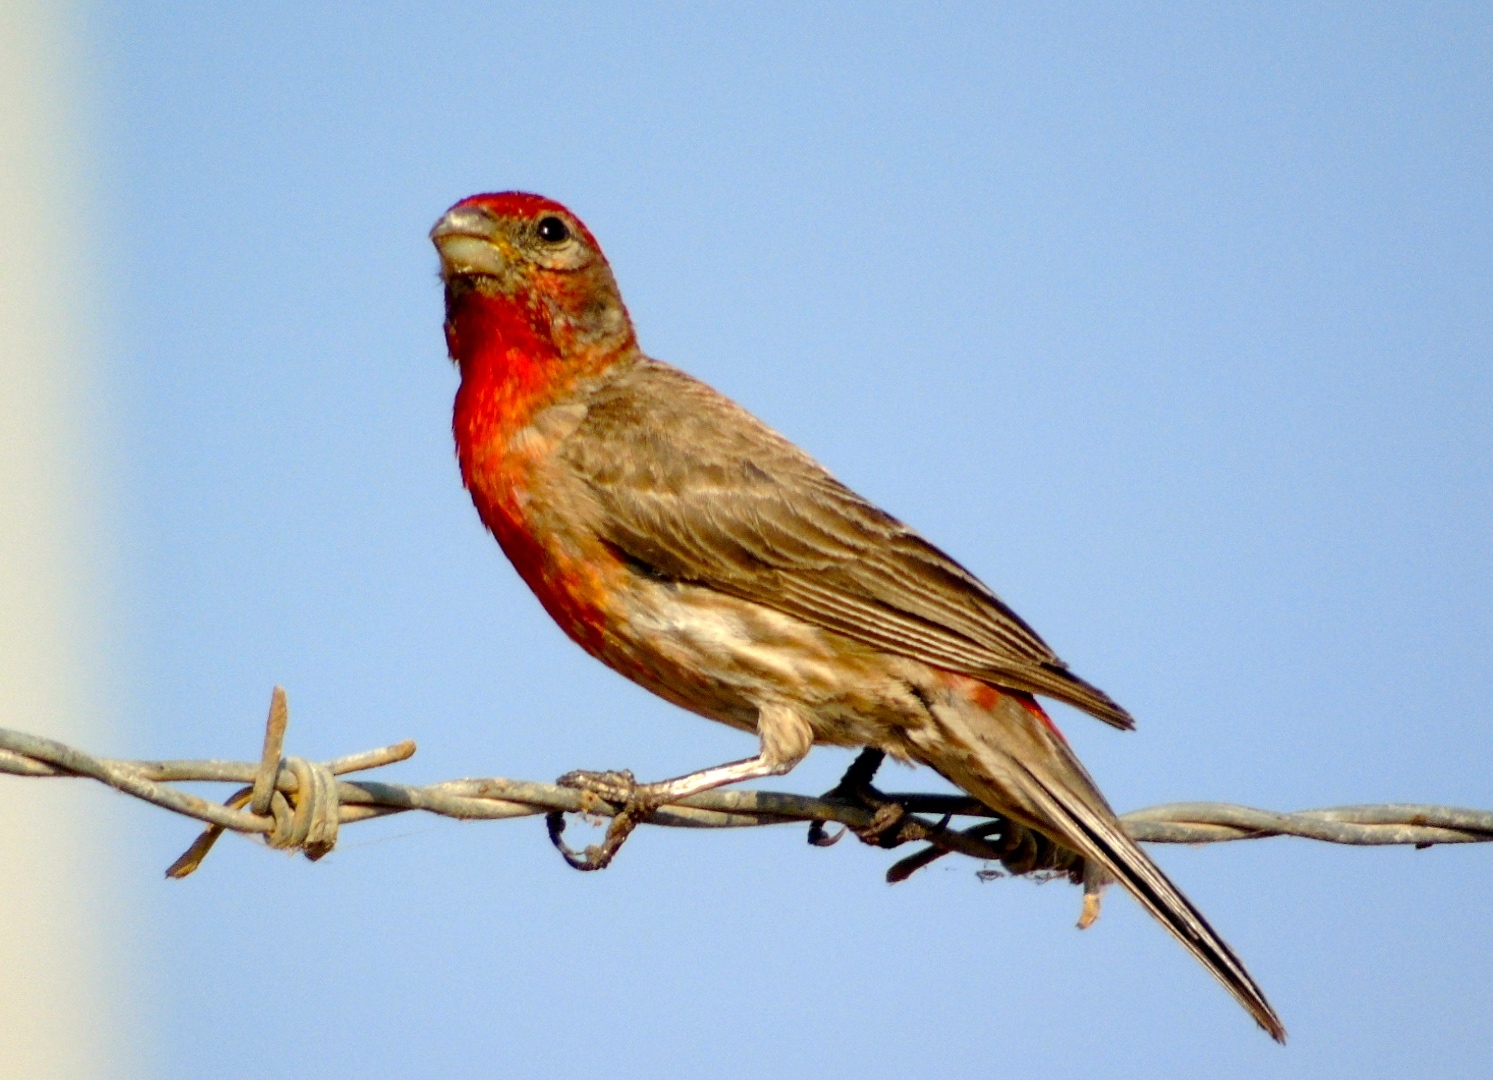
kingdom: Animalia
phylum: Chordata
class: Aves
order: Passeriformes
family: Fringillidae
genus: Haemorhous
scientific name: Haemorhous mexicanus
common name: House finch
